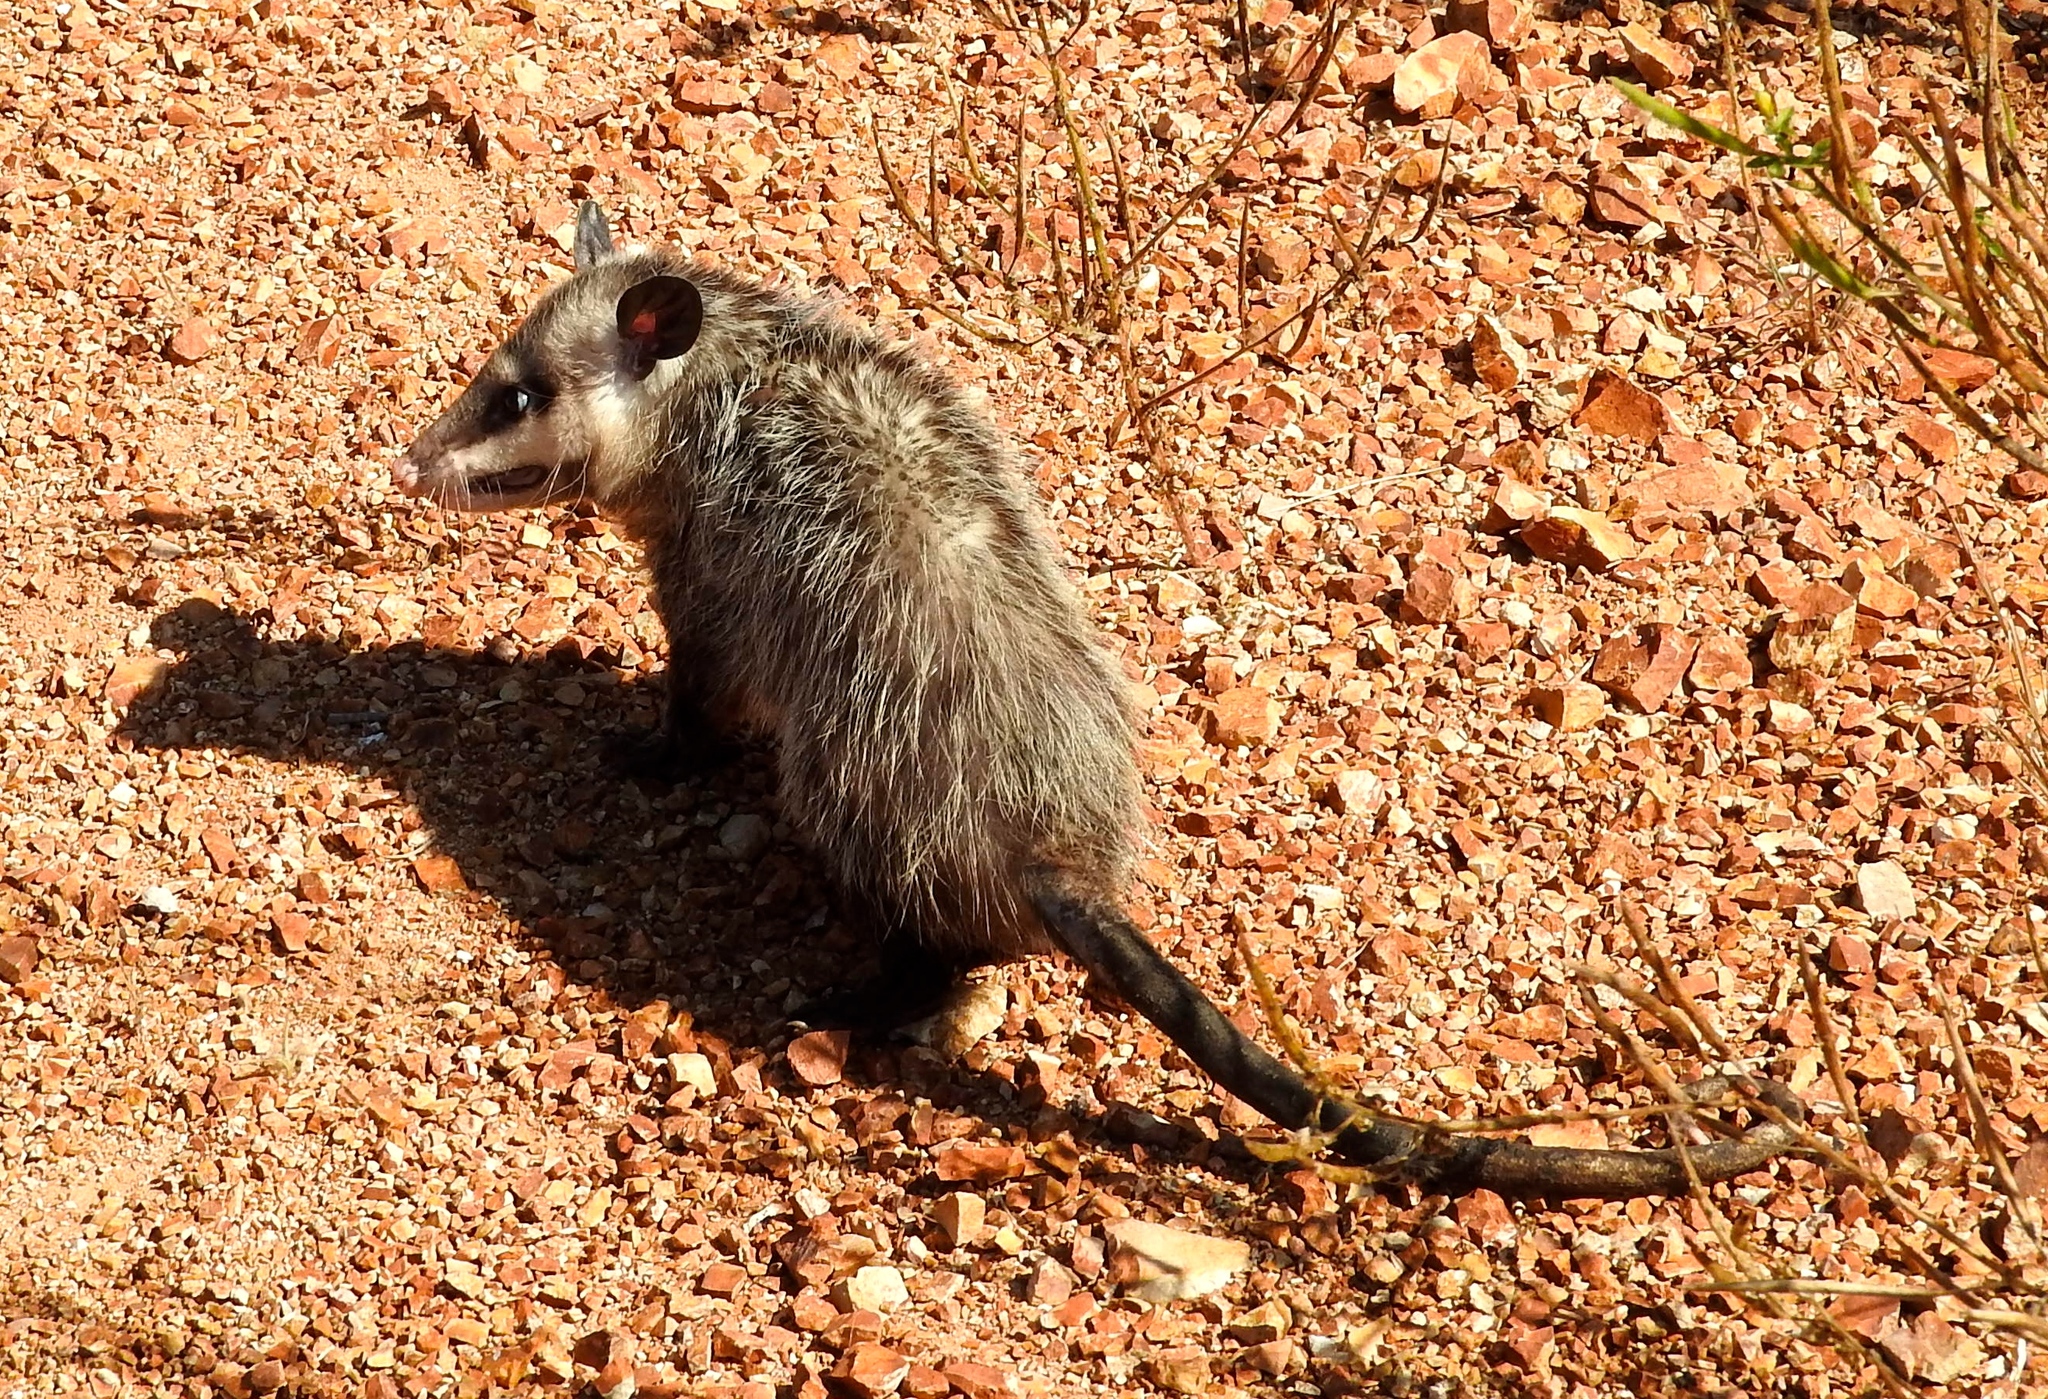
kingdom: Animalia
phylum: Chordata
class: Mammalia
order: Didelphimorphia
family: Didelphidae
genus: Didelphis
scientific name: Didelphis virginiana
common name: Virginia opossum
